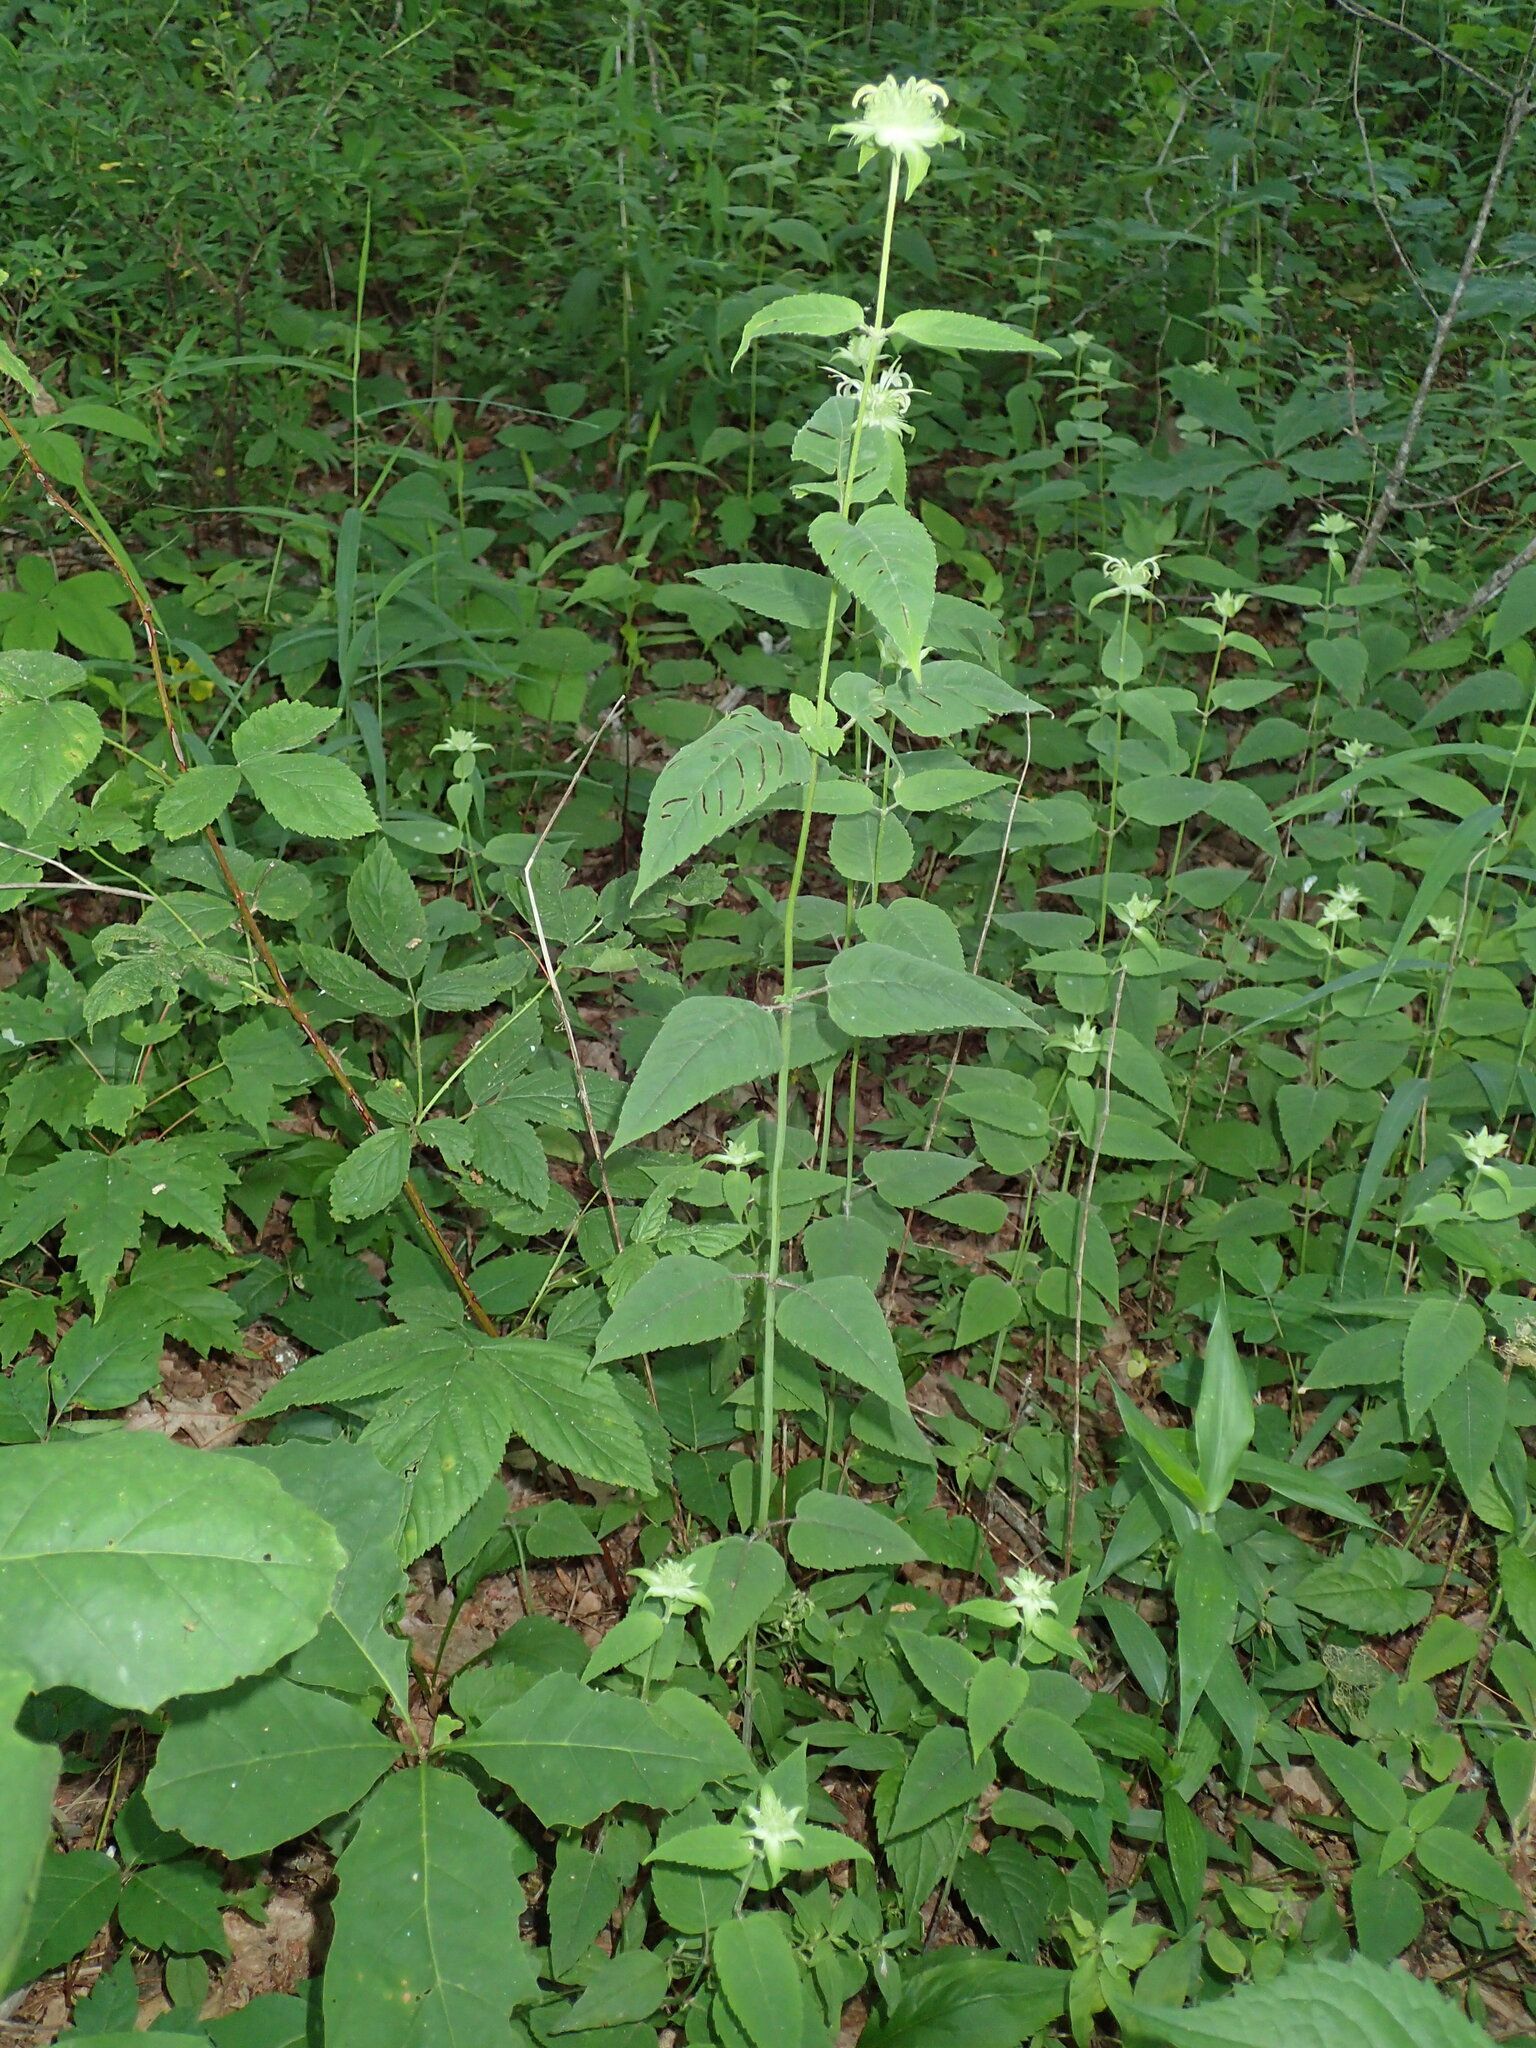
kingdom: Plantae
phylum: Tracheophyta
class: Magnoliopsida
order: Lamiales
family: Lamiaceae
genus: Monarda
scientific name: Monarda clinopodia
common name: Basil beebalm
